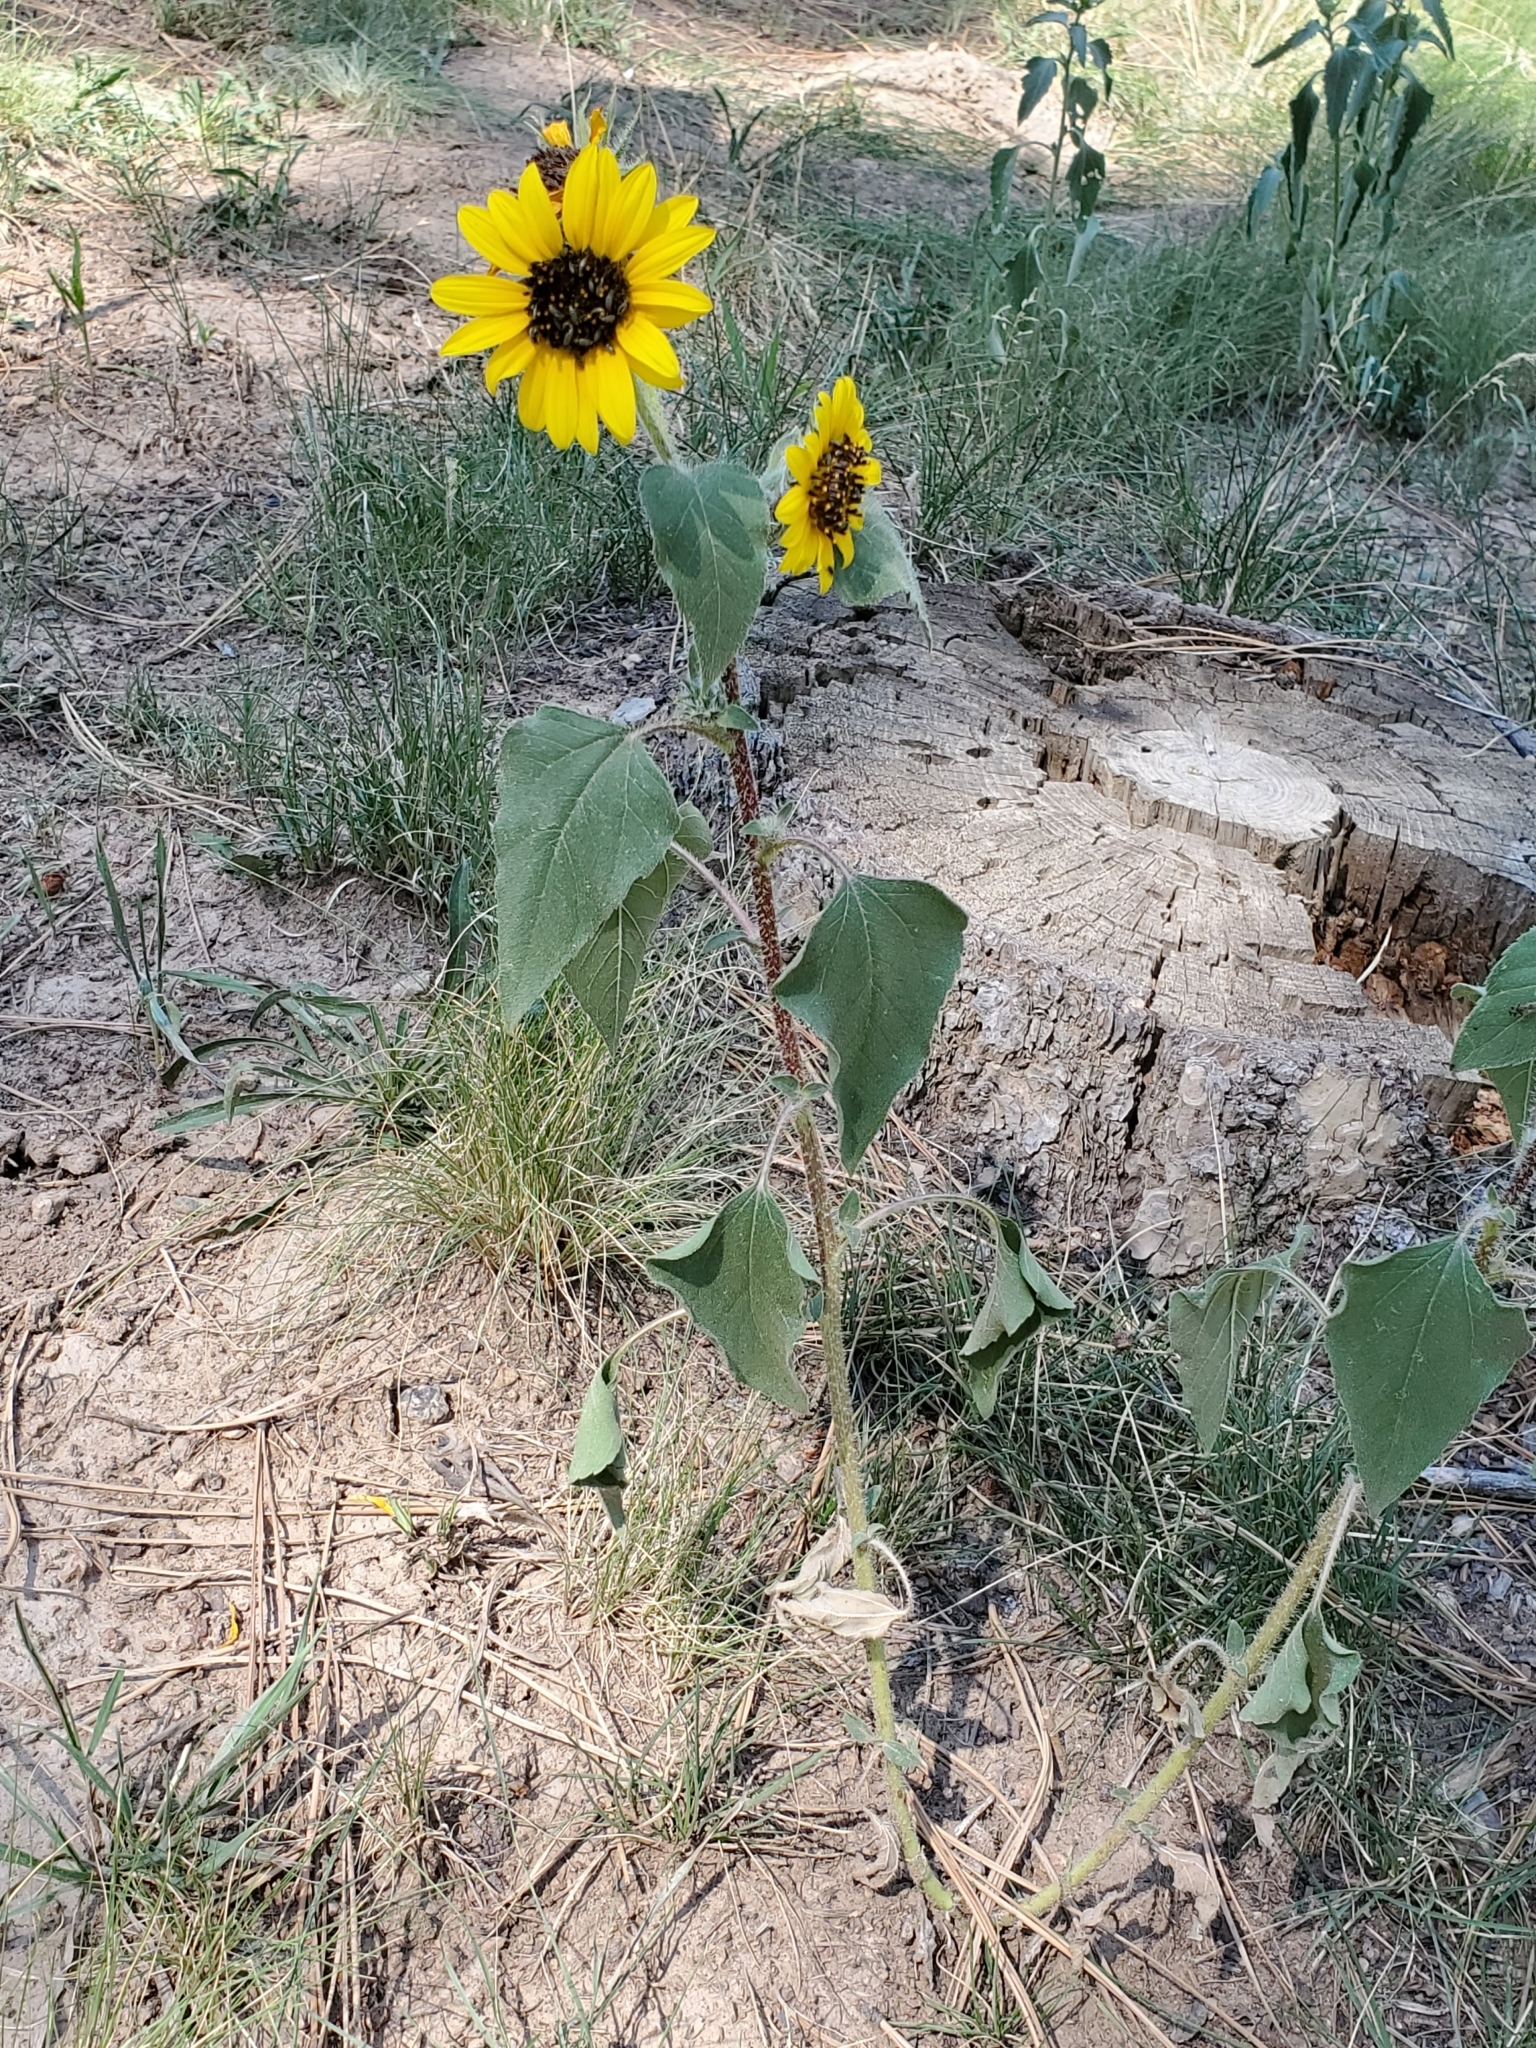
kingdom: Plantae
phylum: Tracheophyta
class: Magnoliopsida
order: Asterales
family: Asteraceae
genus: Helianthus
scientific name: Helianthus annuus
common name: Sunflower
